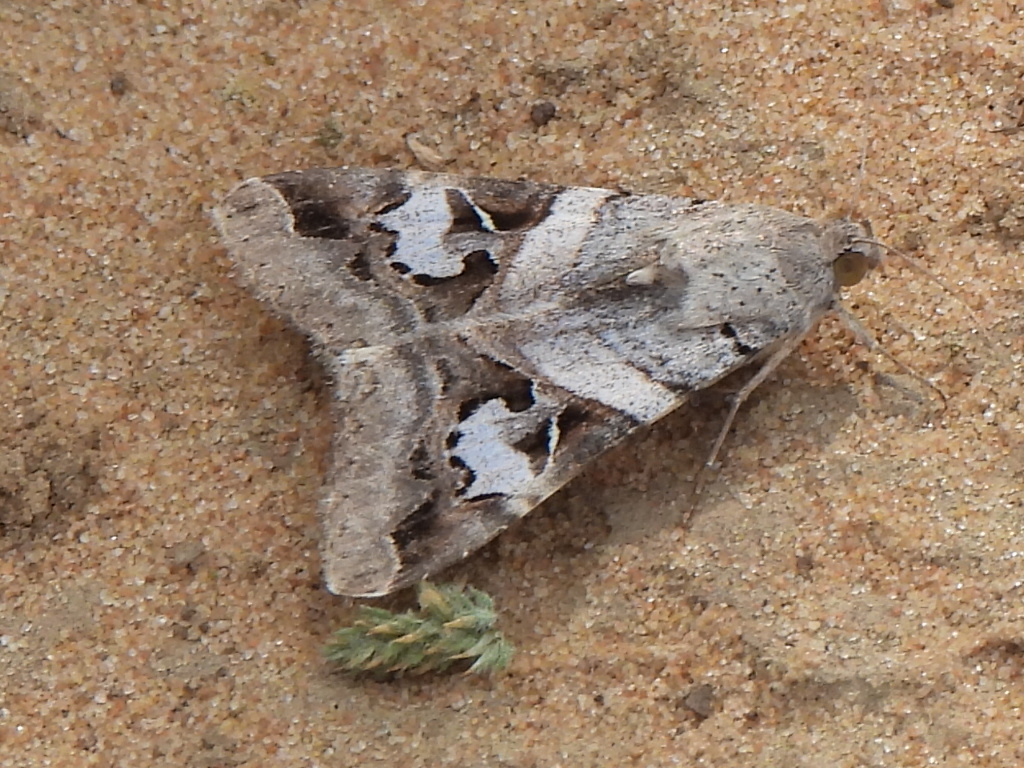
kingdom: Animalia
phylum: Arthropoda
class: Insecta
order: Lepidoptera
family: Erebidae
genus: Melipotis
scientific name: Melipotis indomita
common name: Moth
